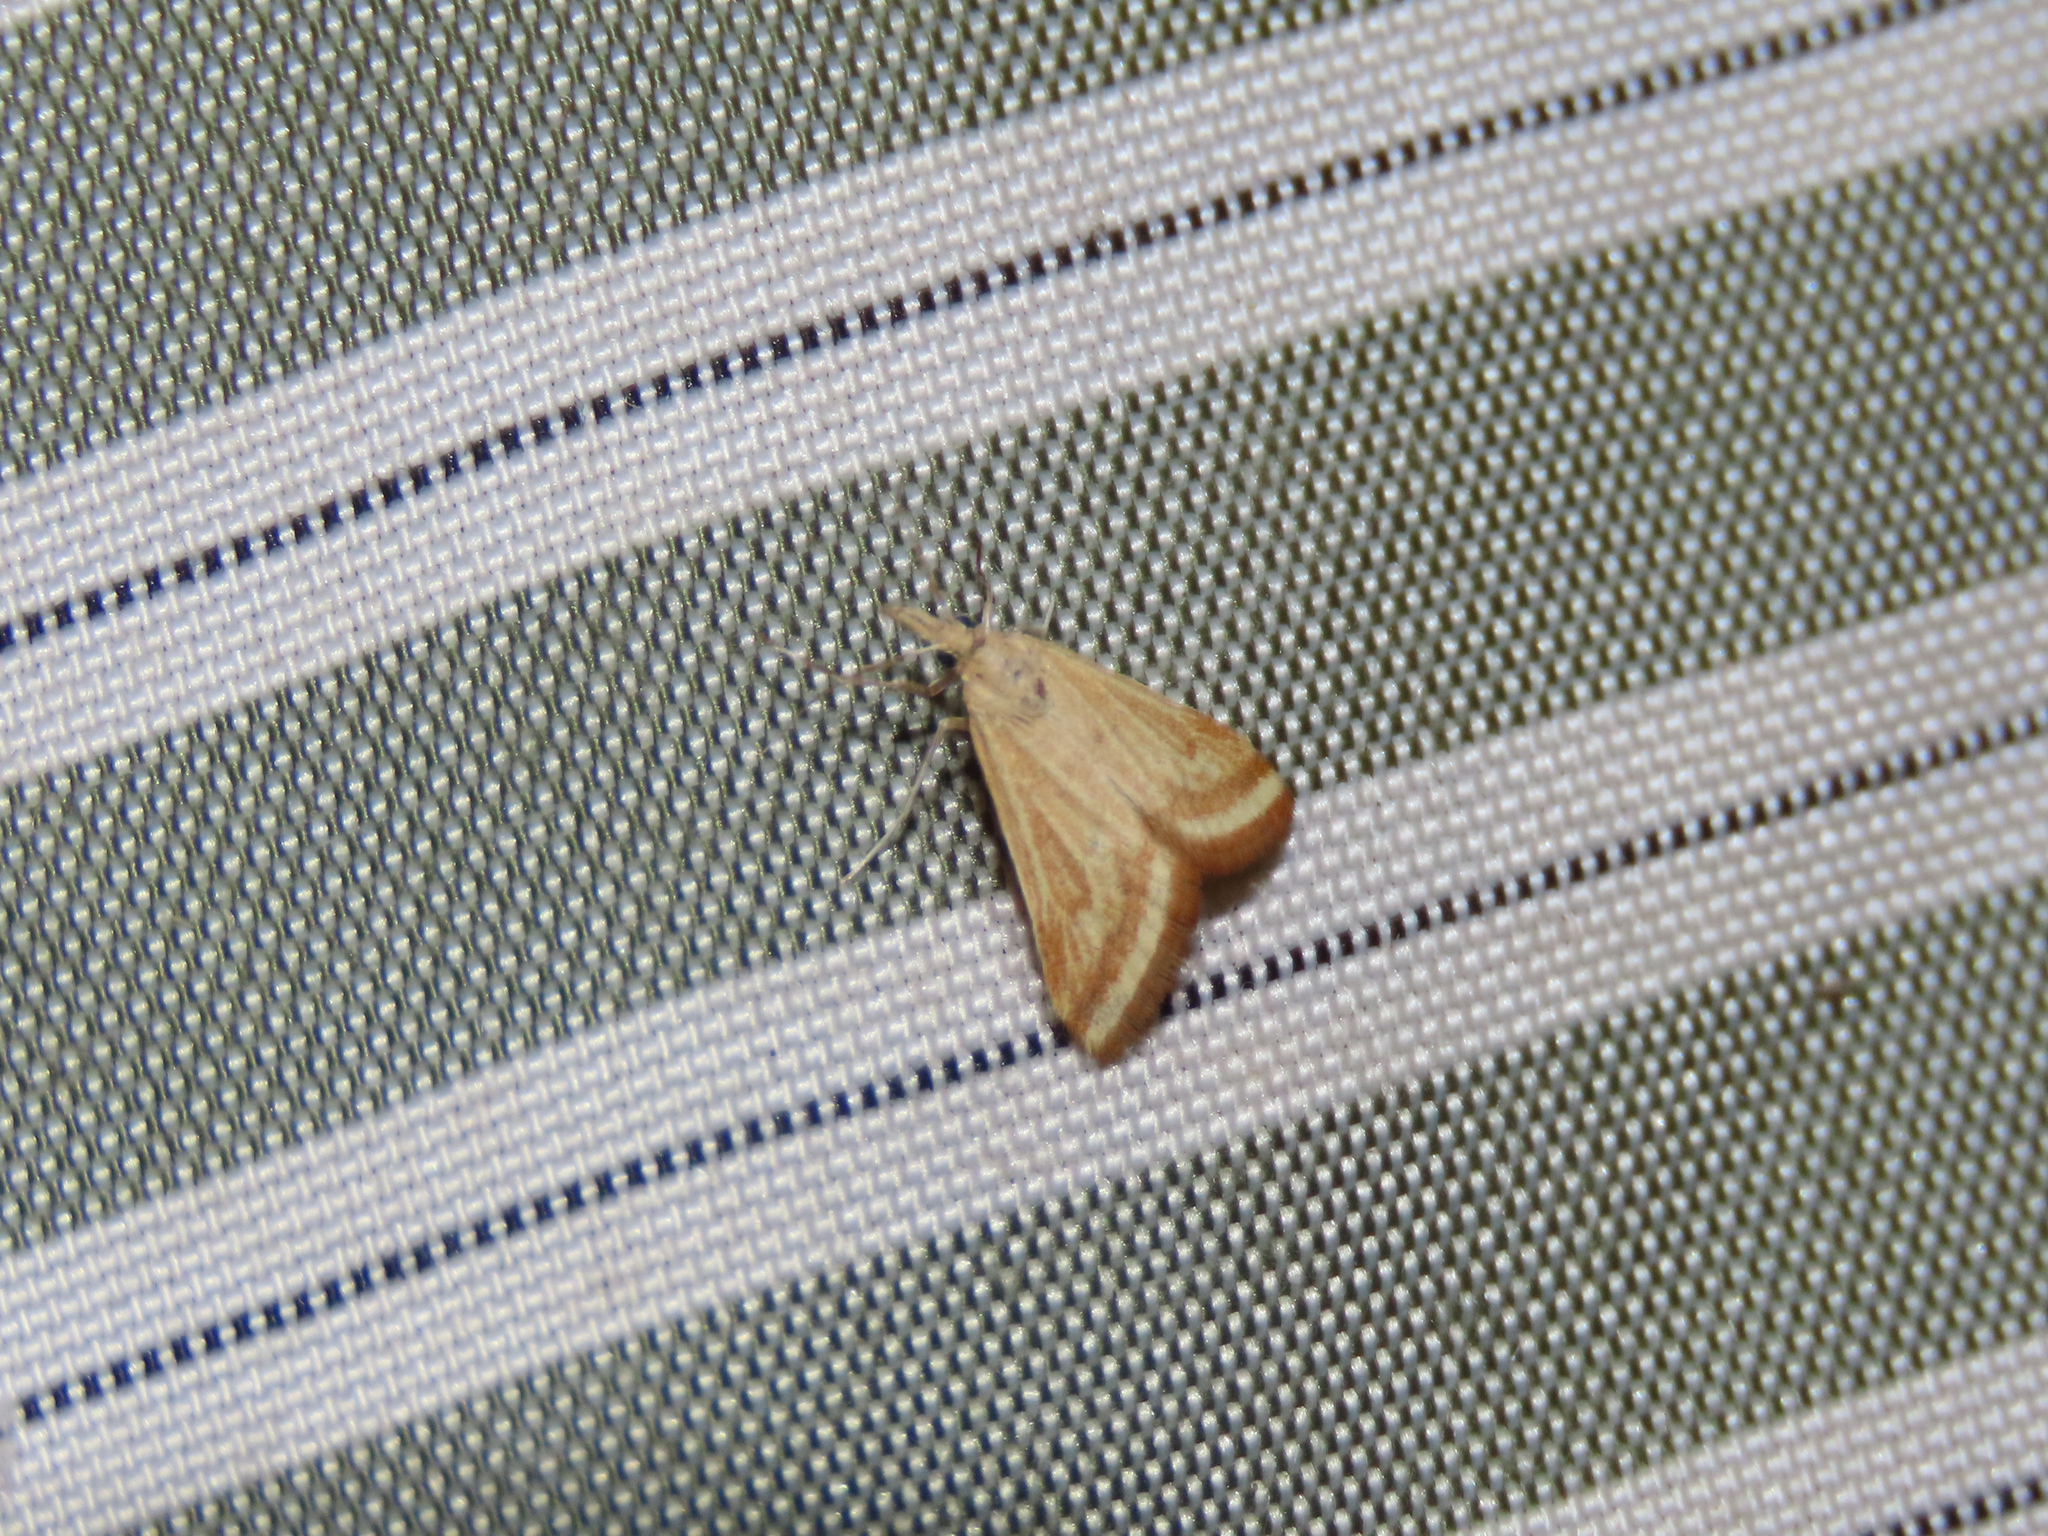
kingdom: Animalia
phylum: Arthropoda
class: Insecta
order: Lepidoptera
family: Crambidae
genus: Microtheoris
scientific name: Microtheoris ophionalis
